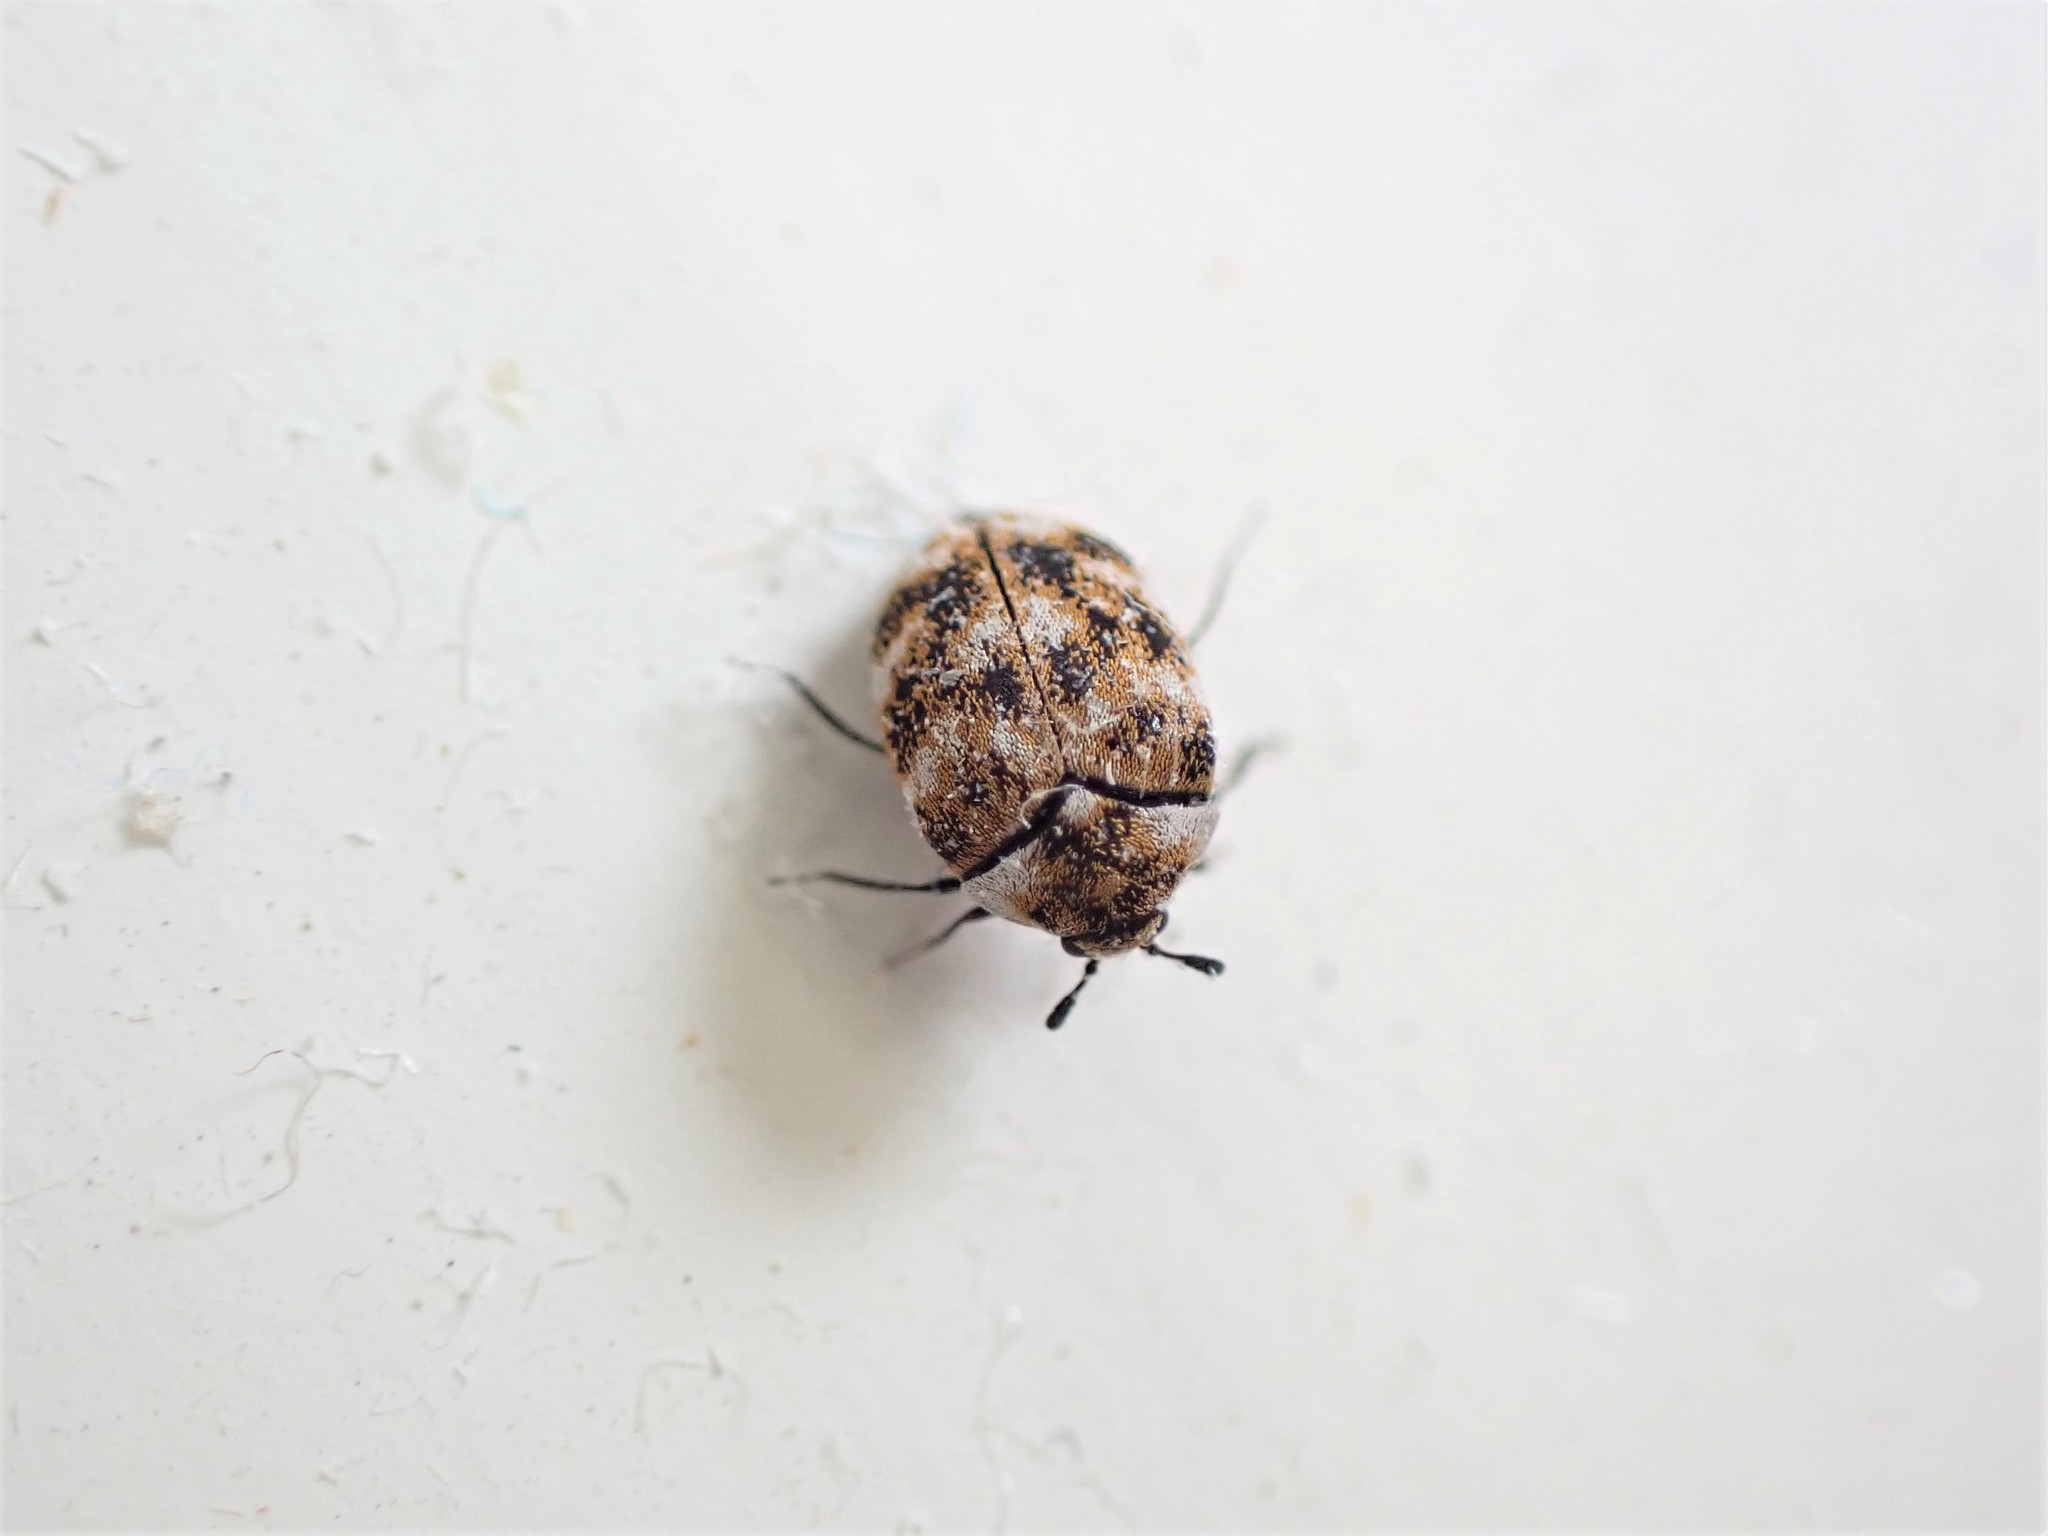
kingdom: Animalia
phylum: Arthropoda
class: Insecta
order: Coleoptera
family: Dermestidae
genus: Anthrenus
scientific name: Anthrenus verbasci
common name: Varied carpet beetle
